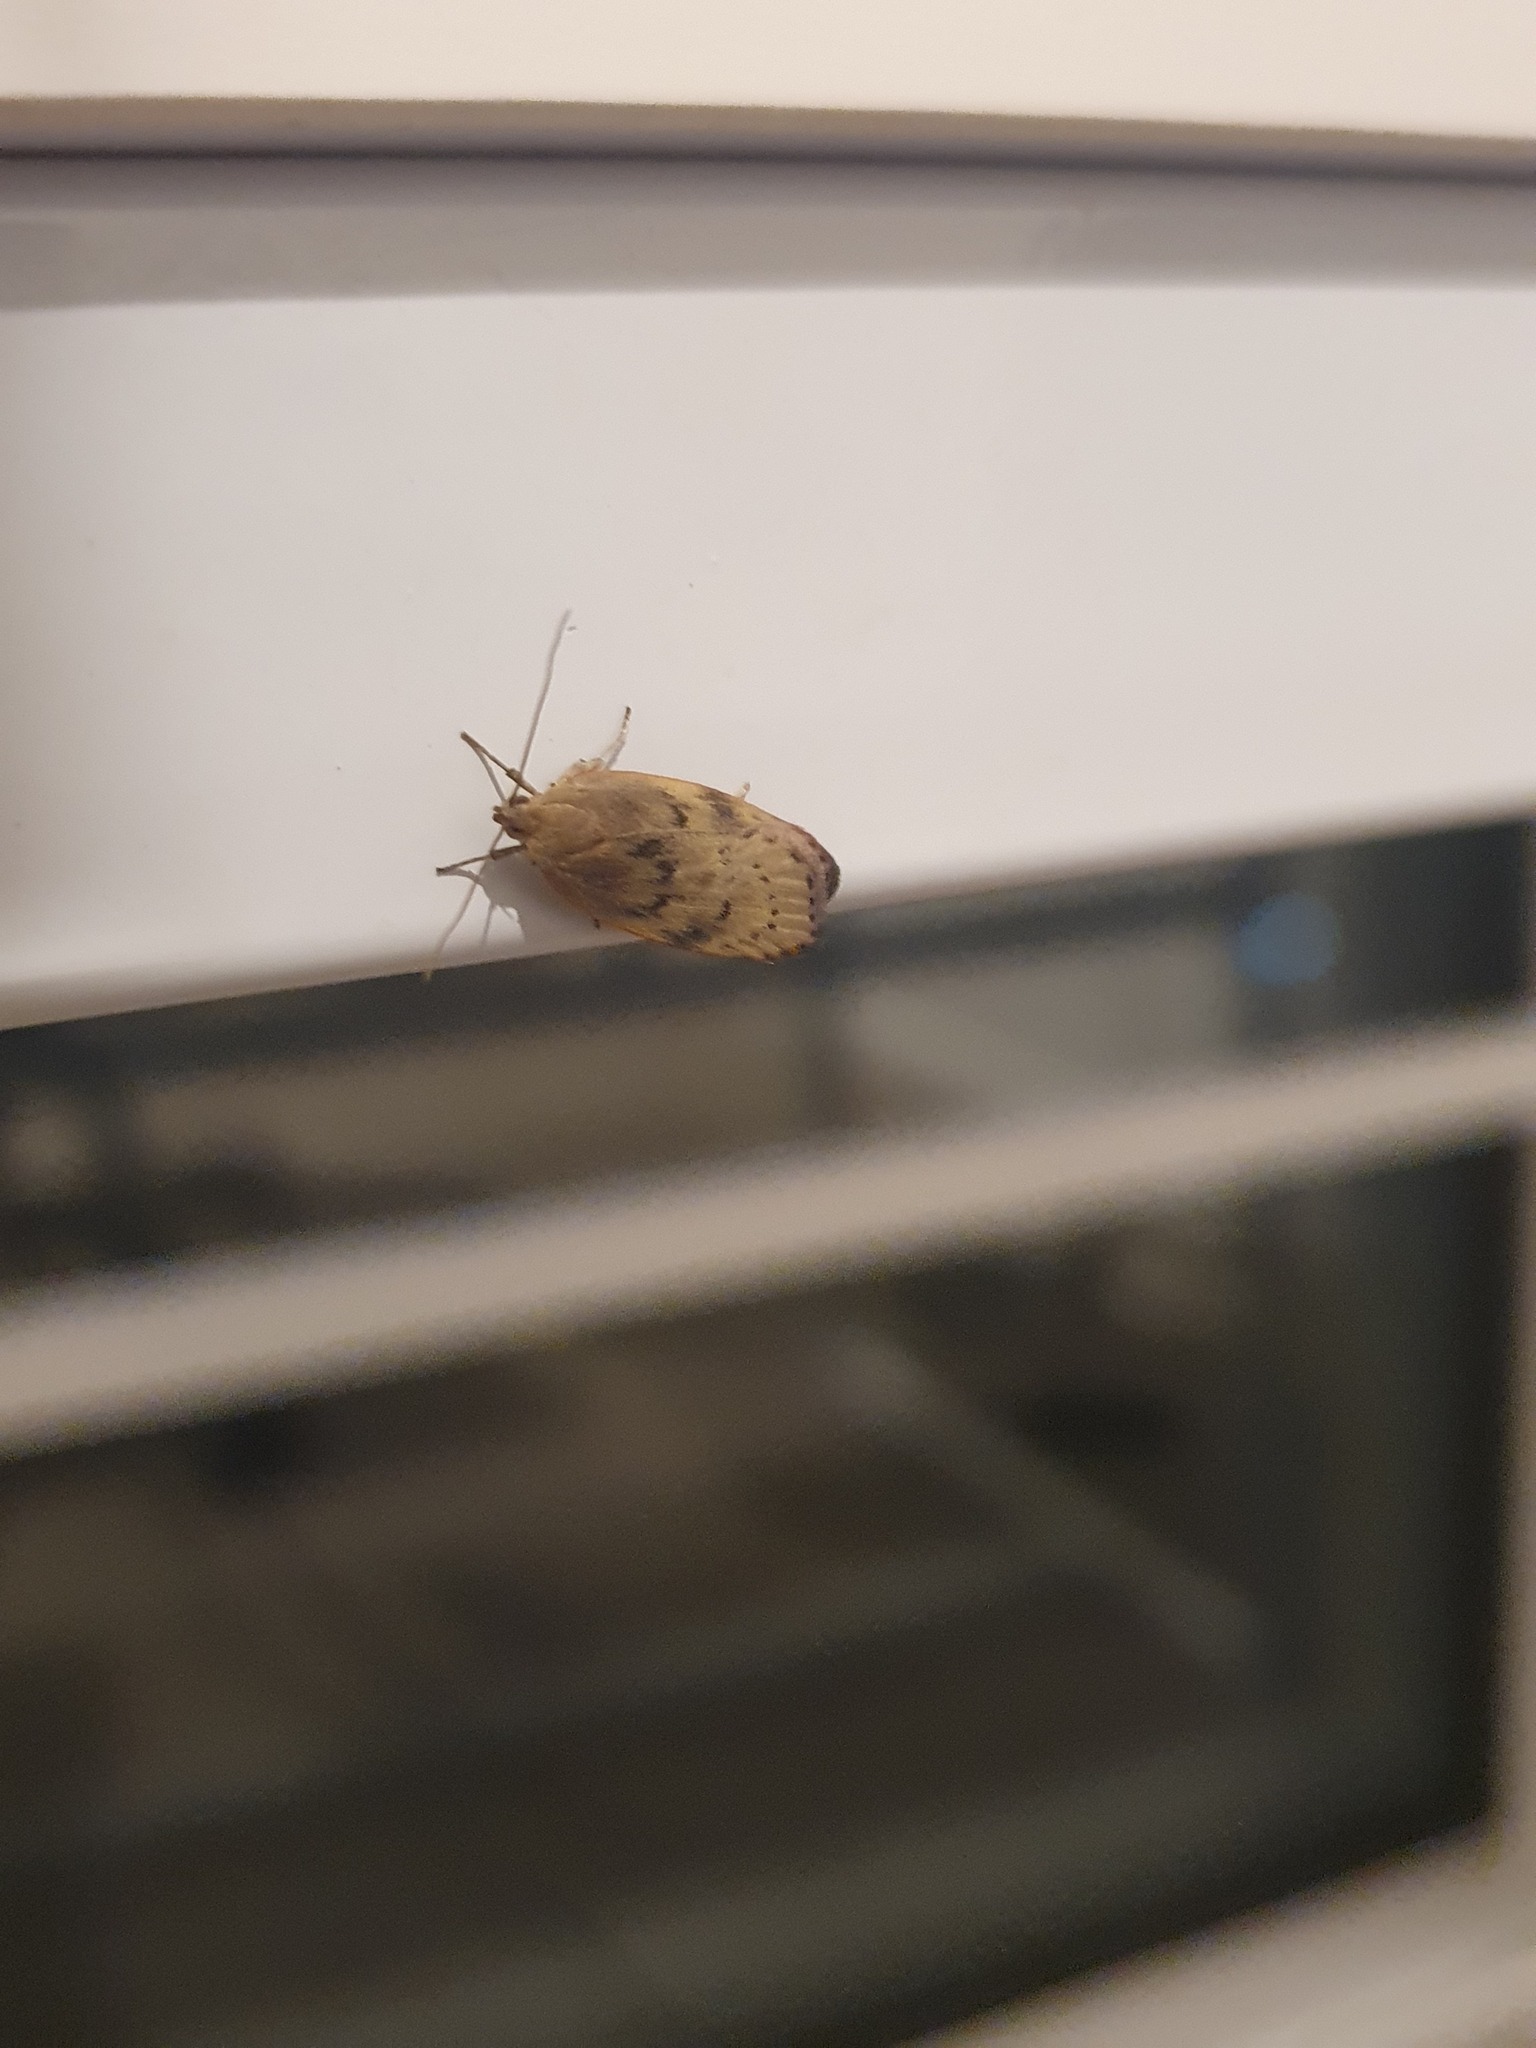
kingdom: Animalia
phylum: Arthropoda
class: Insecta
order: Lepidoptera
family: Depressariidae
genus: Phaeosaces
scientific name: Phaeosaces coarctatella
